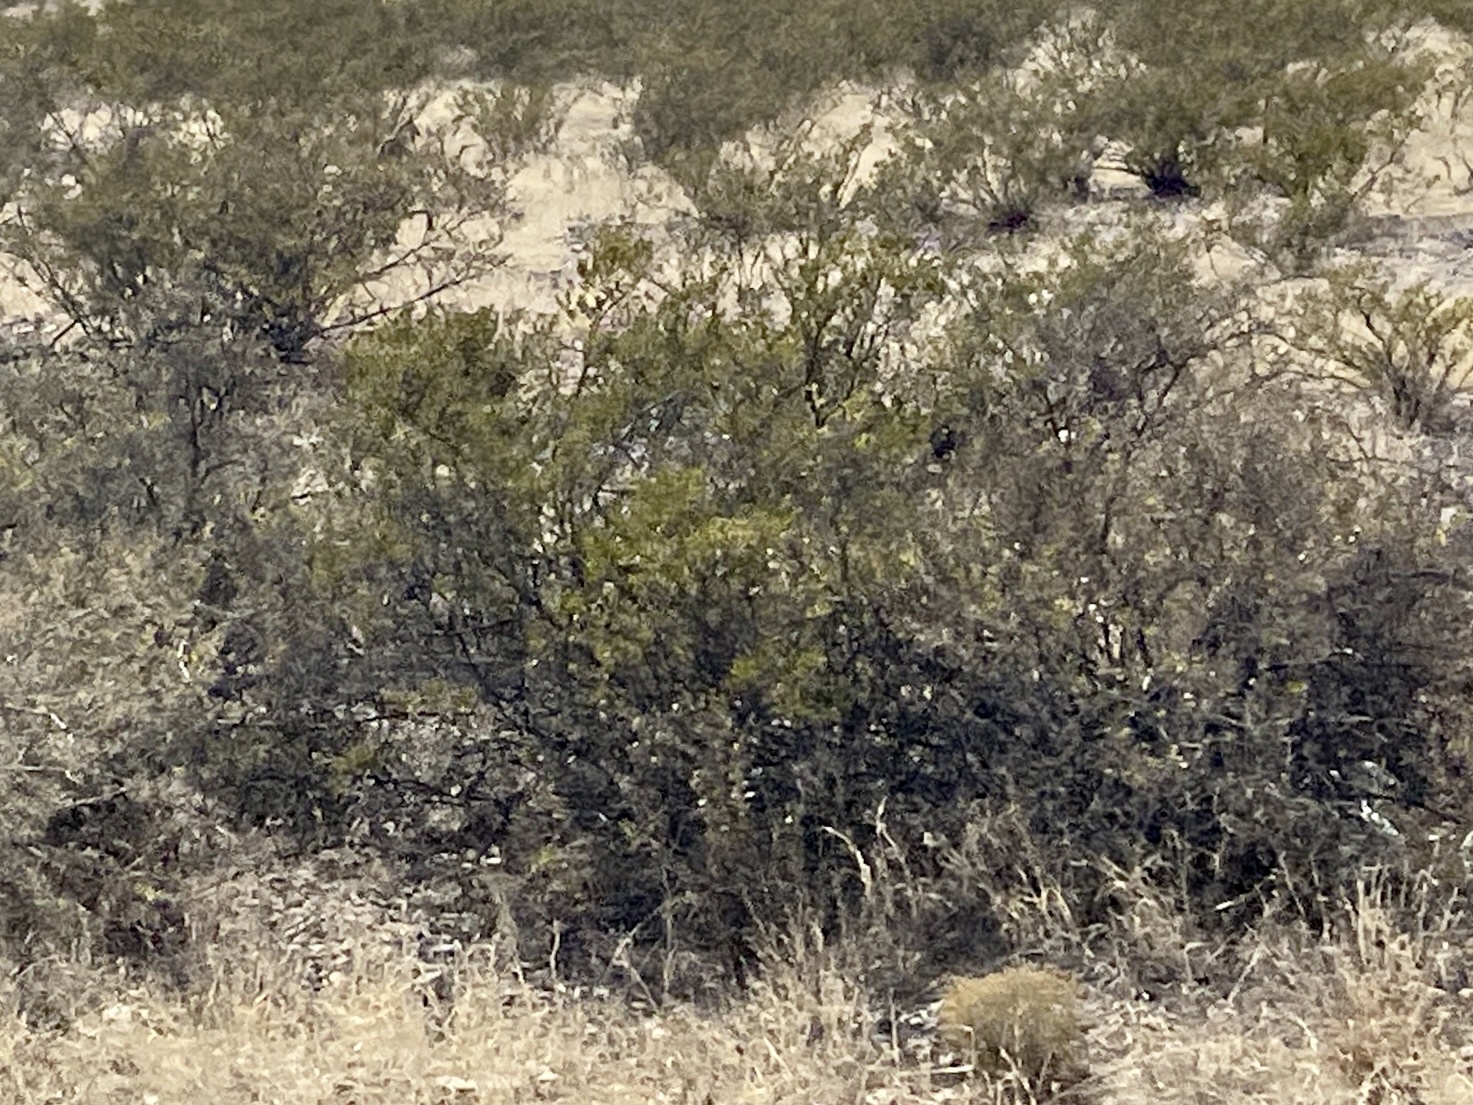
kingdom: Plantae
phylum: Tracheophyta
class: Magnoliopsida
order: Zygophyllales
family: Zygophyllaceae
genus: Larrea
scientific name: Larrea tridentata
